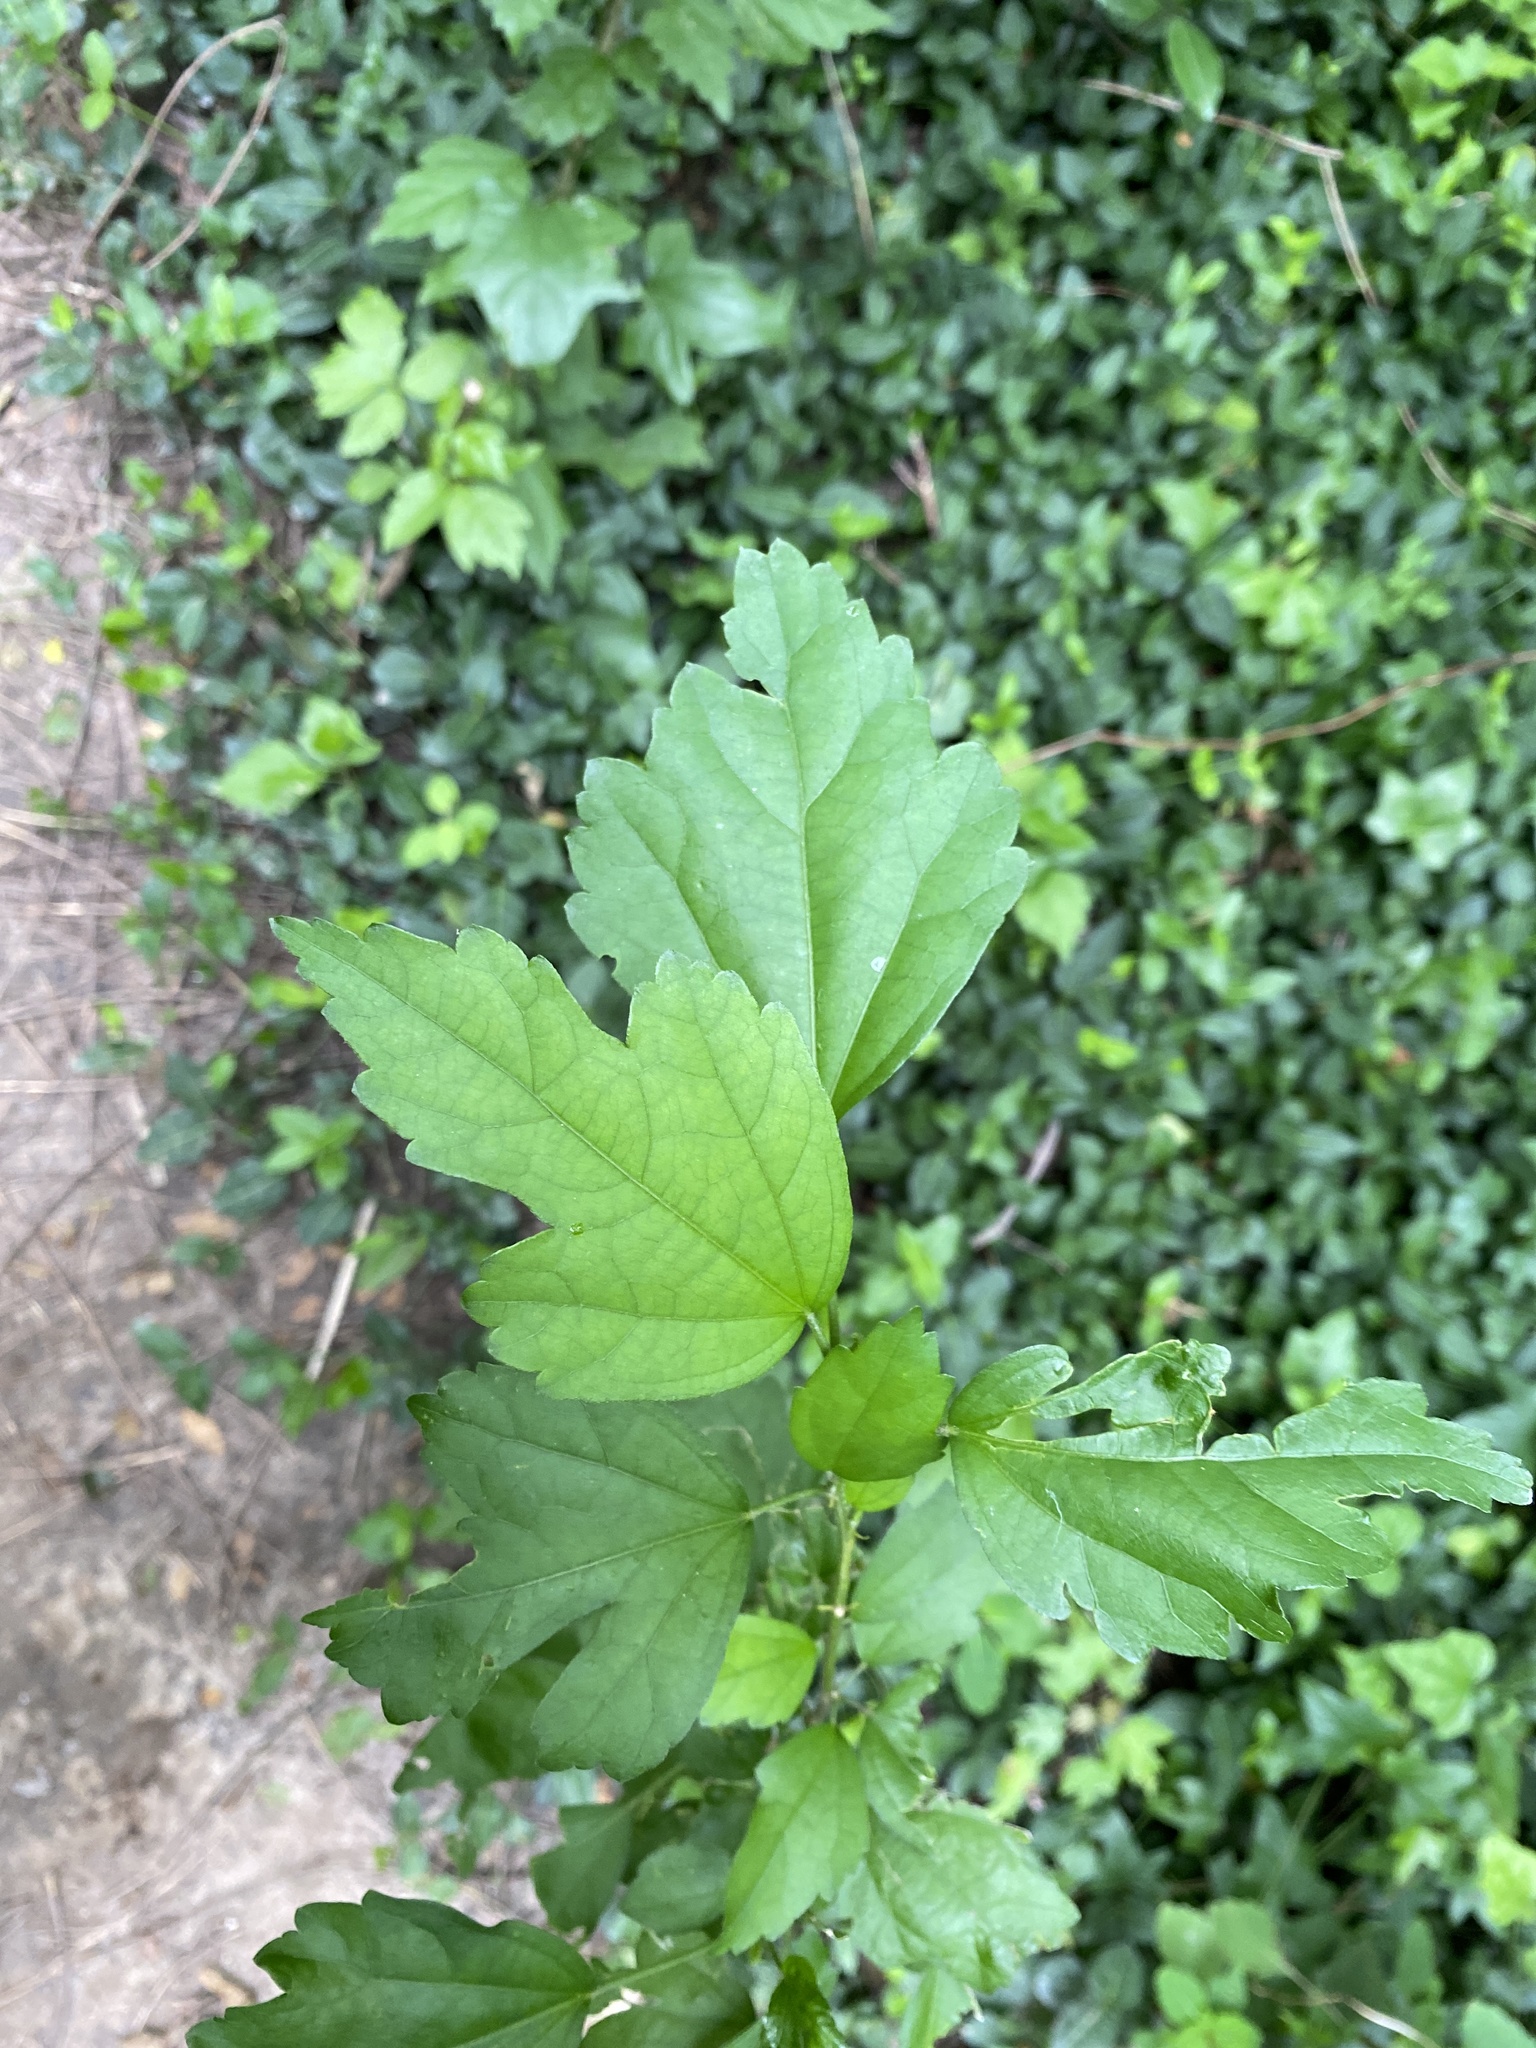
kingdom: Plantae
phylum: Tracheophyta
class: Magnoliopsida
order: Malvales
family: Malvaceae
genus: Hibiscus
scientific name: Hibiscus syriacus
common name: Syrian ketmia
